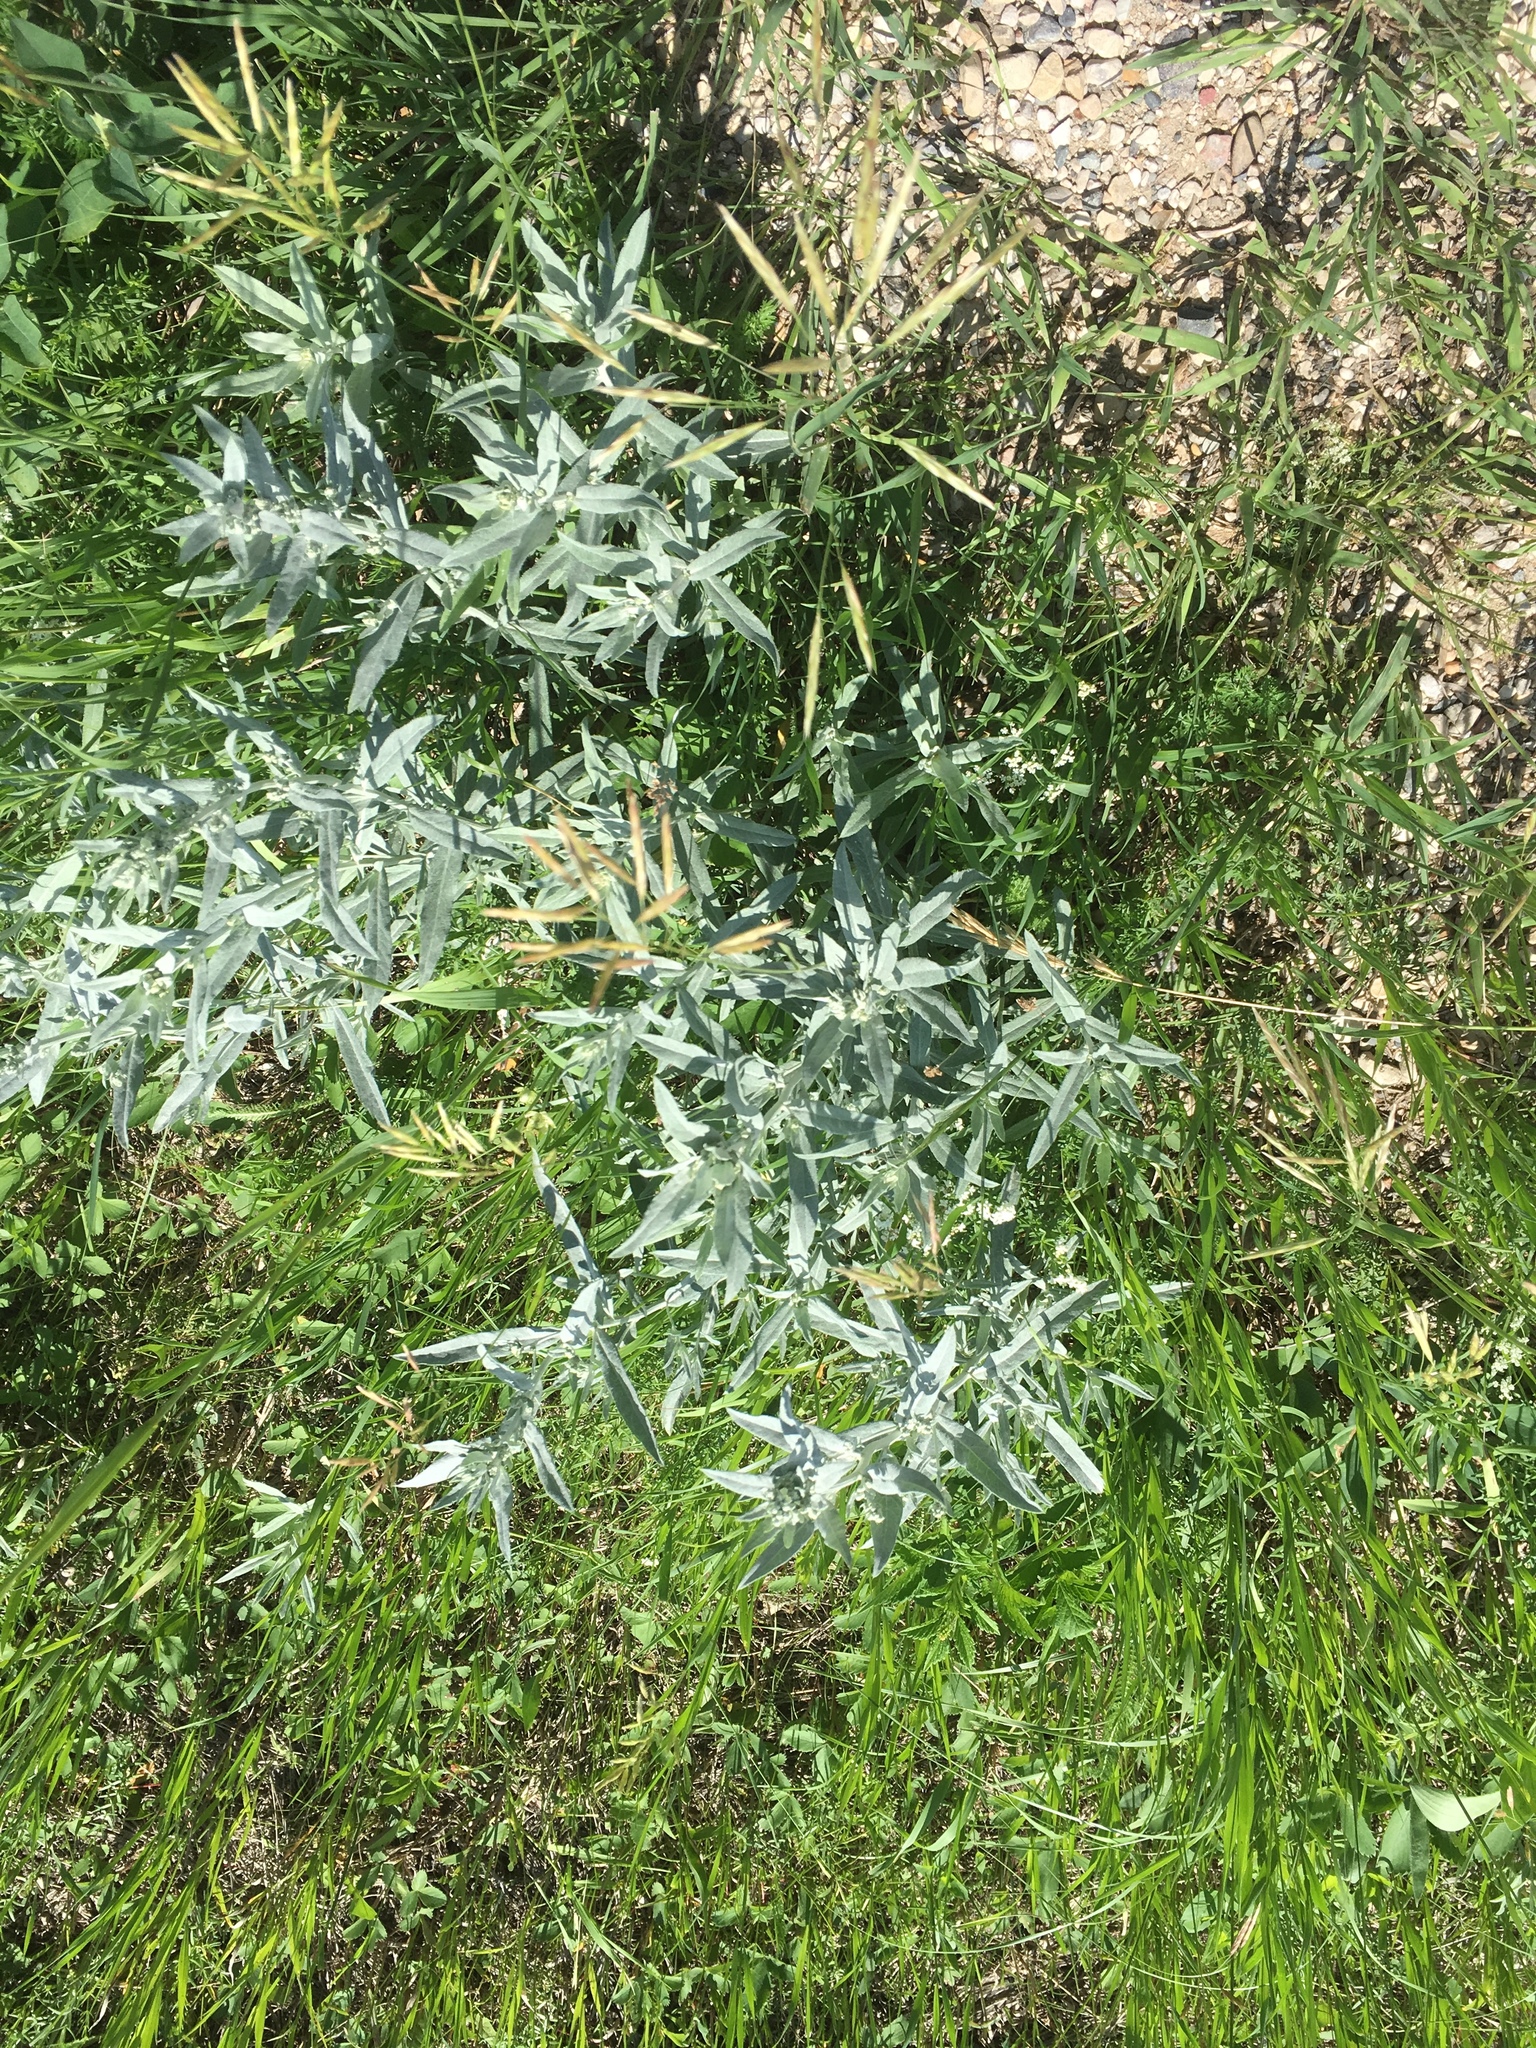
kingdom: Plantae
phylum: Tracheophyta
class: Magnoliopsida
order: Asterales
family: Asteraceae
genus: Artemisia
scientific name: Artemisia ludoviciana
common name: Western mugwort
